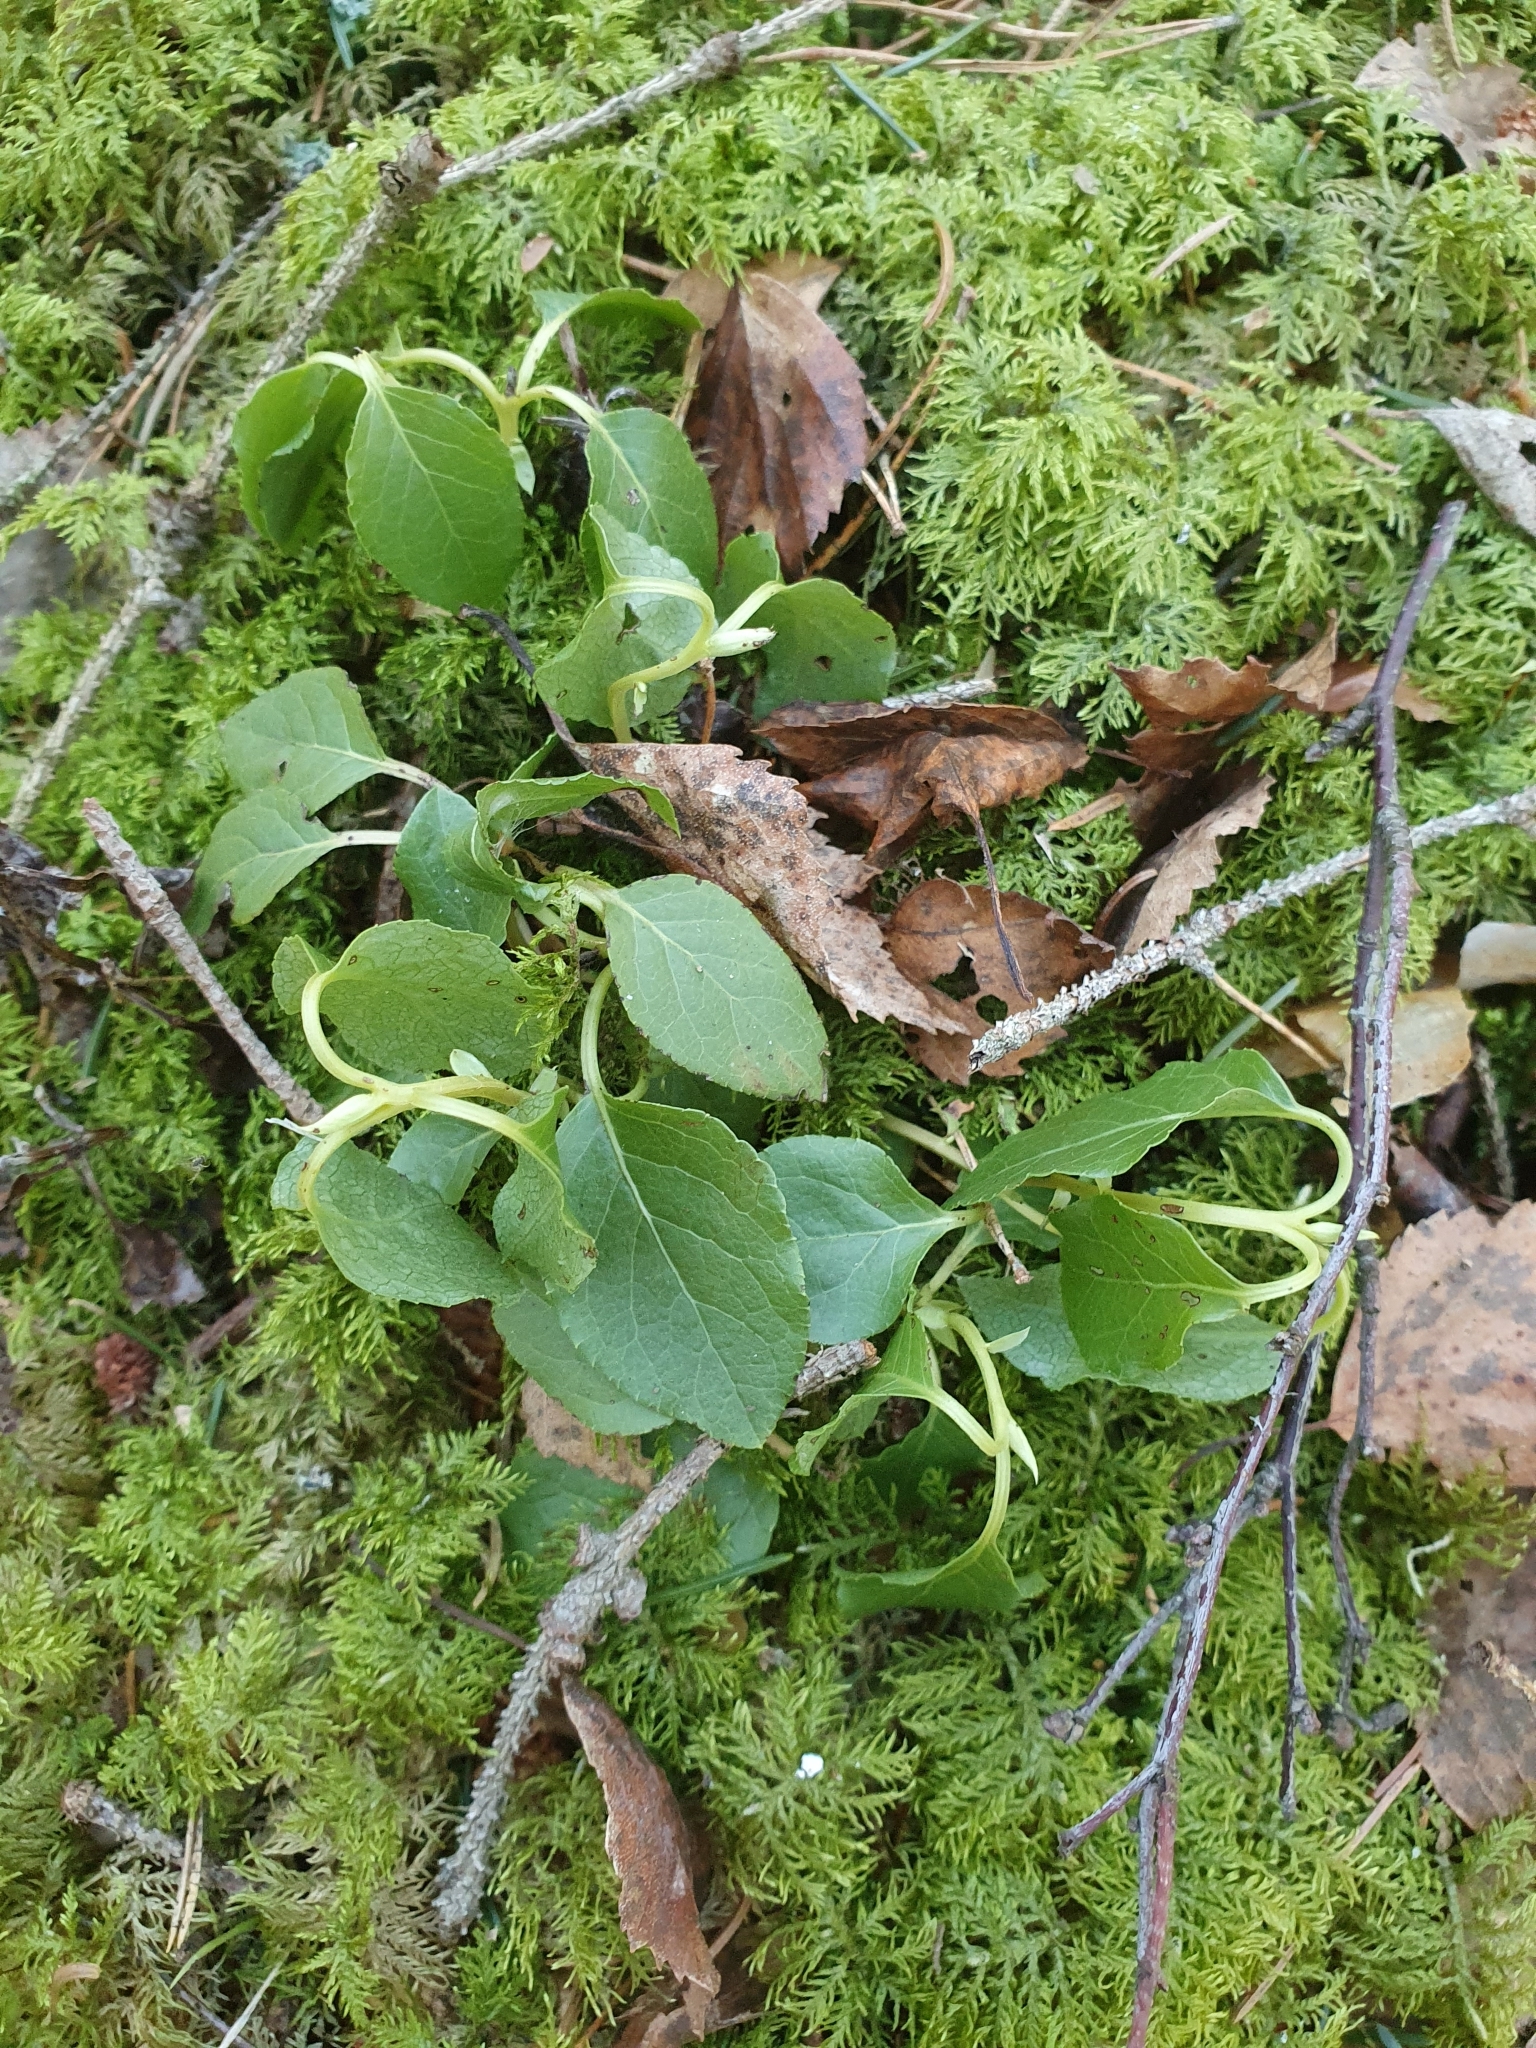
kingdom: Plantae
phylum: Tracheophyta
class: Magnoliopsida
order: Ericales
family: Ericaceae
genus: Orthilia
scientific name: Orthilia secunda
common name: One-sided orthilia
